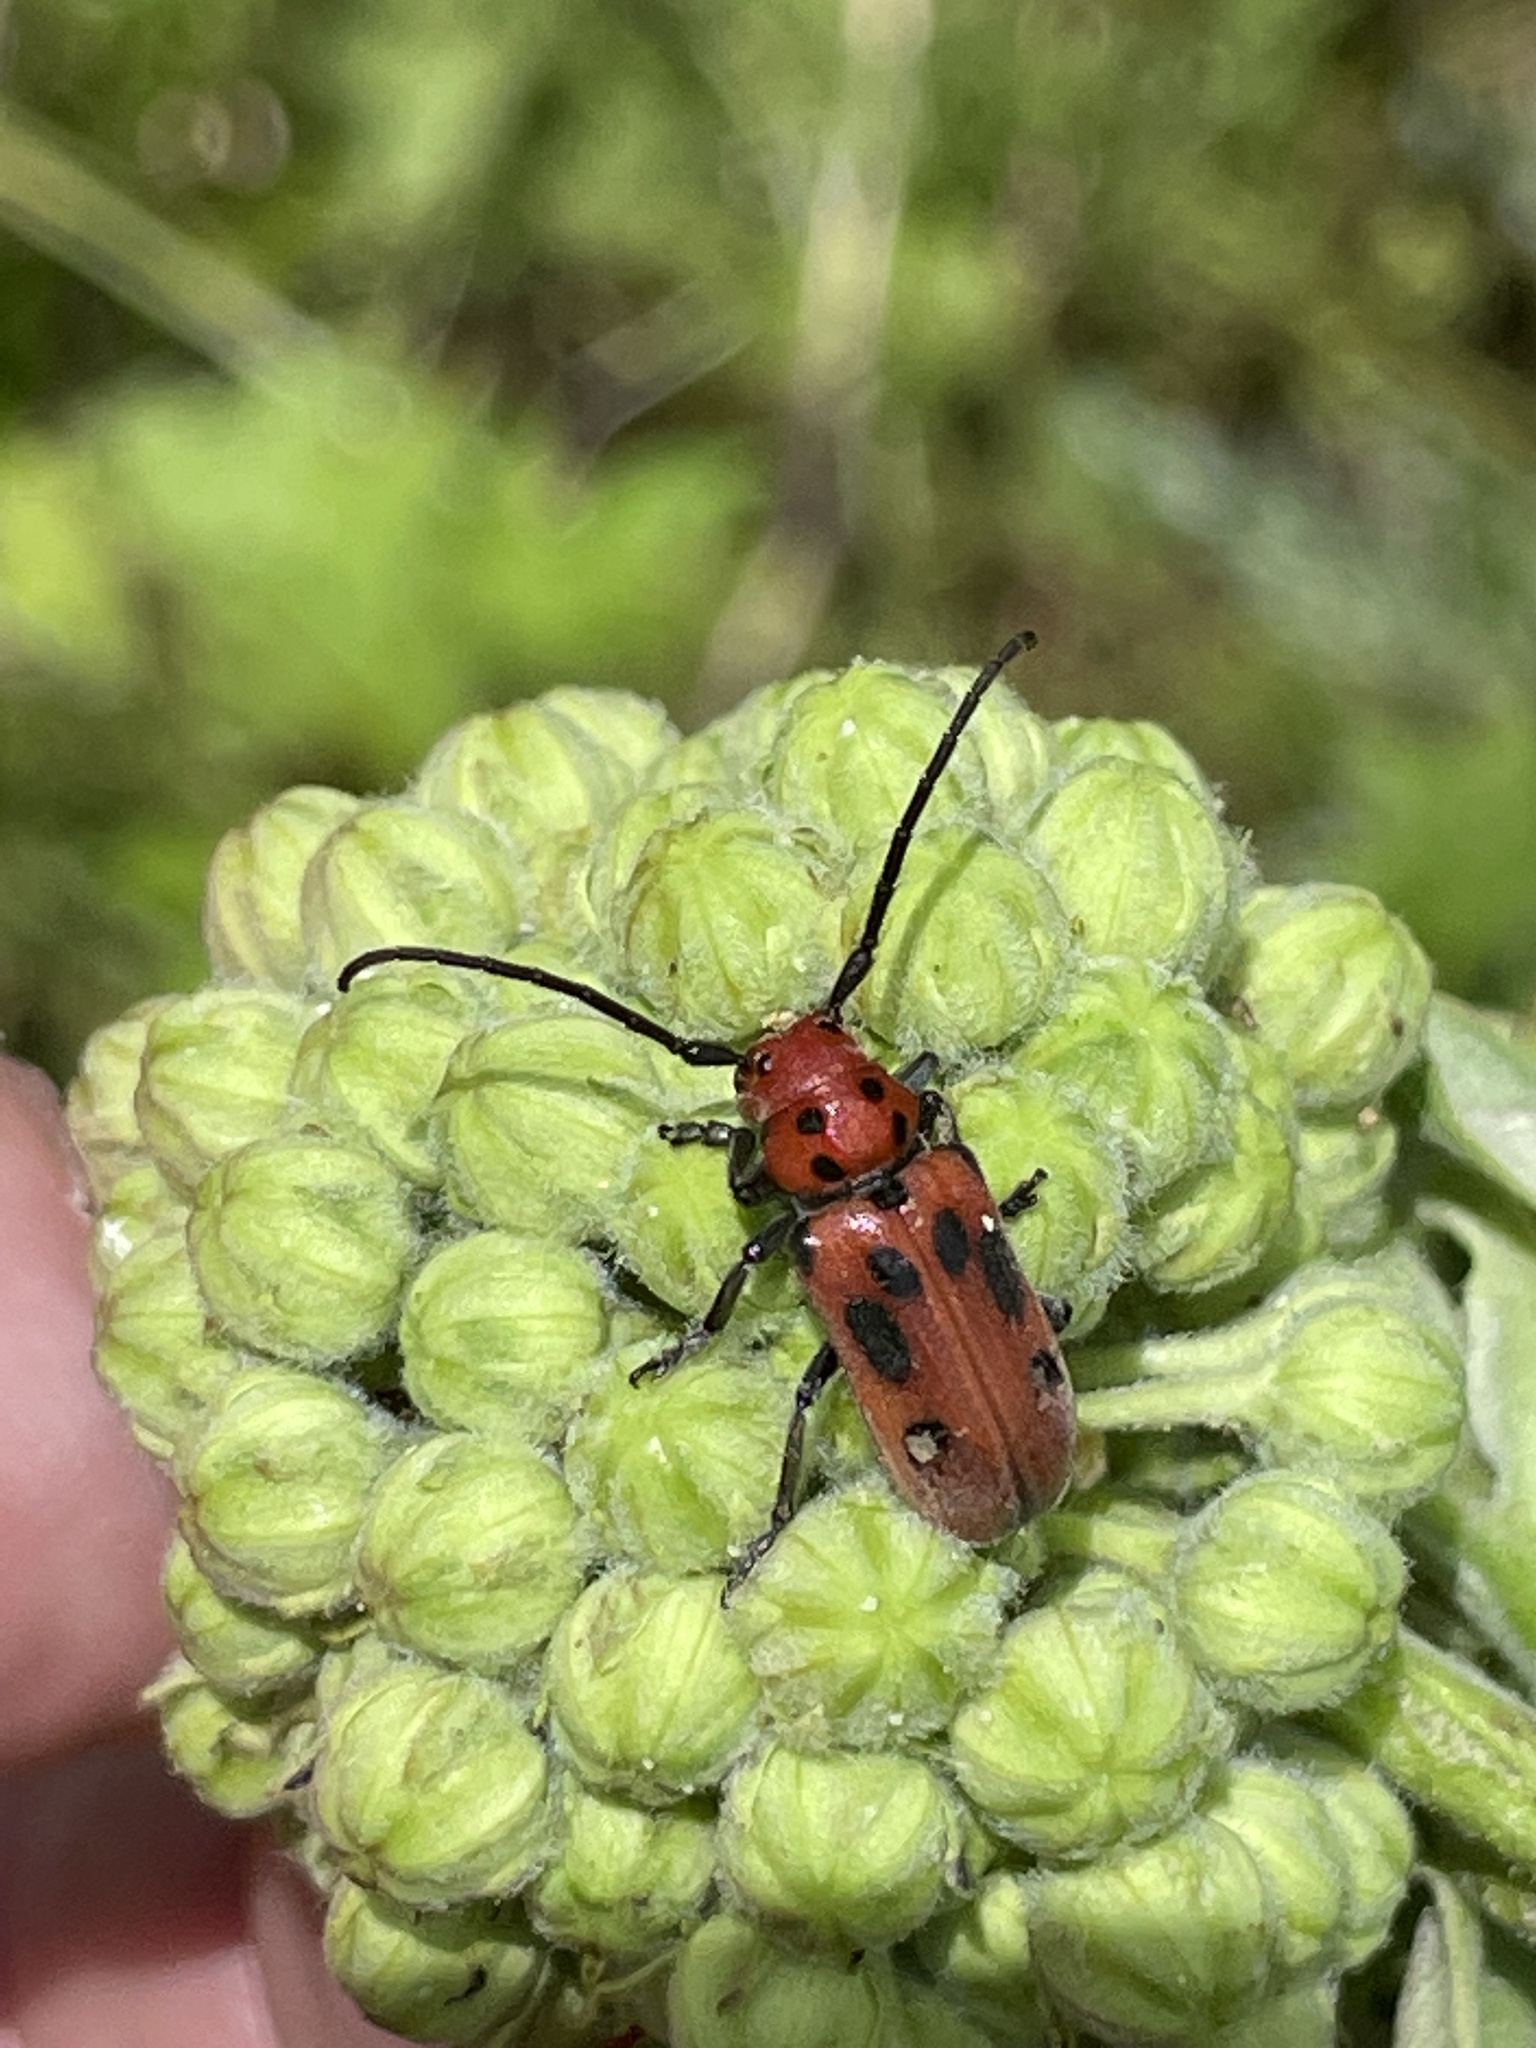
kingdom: Animalia
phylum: Arthropoda
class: Insecta
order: Coleoptera
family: Cerambycidae
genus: Tetraopes
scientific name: Tetraopes tetrophthalmus
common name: Red milkweed beetle
